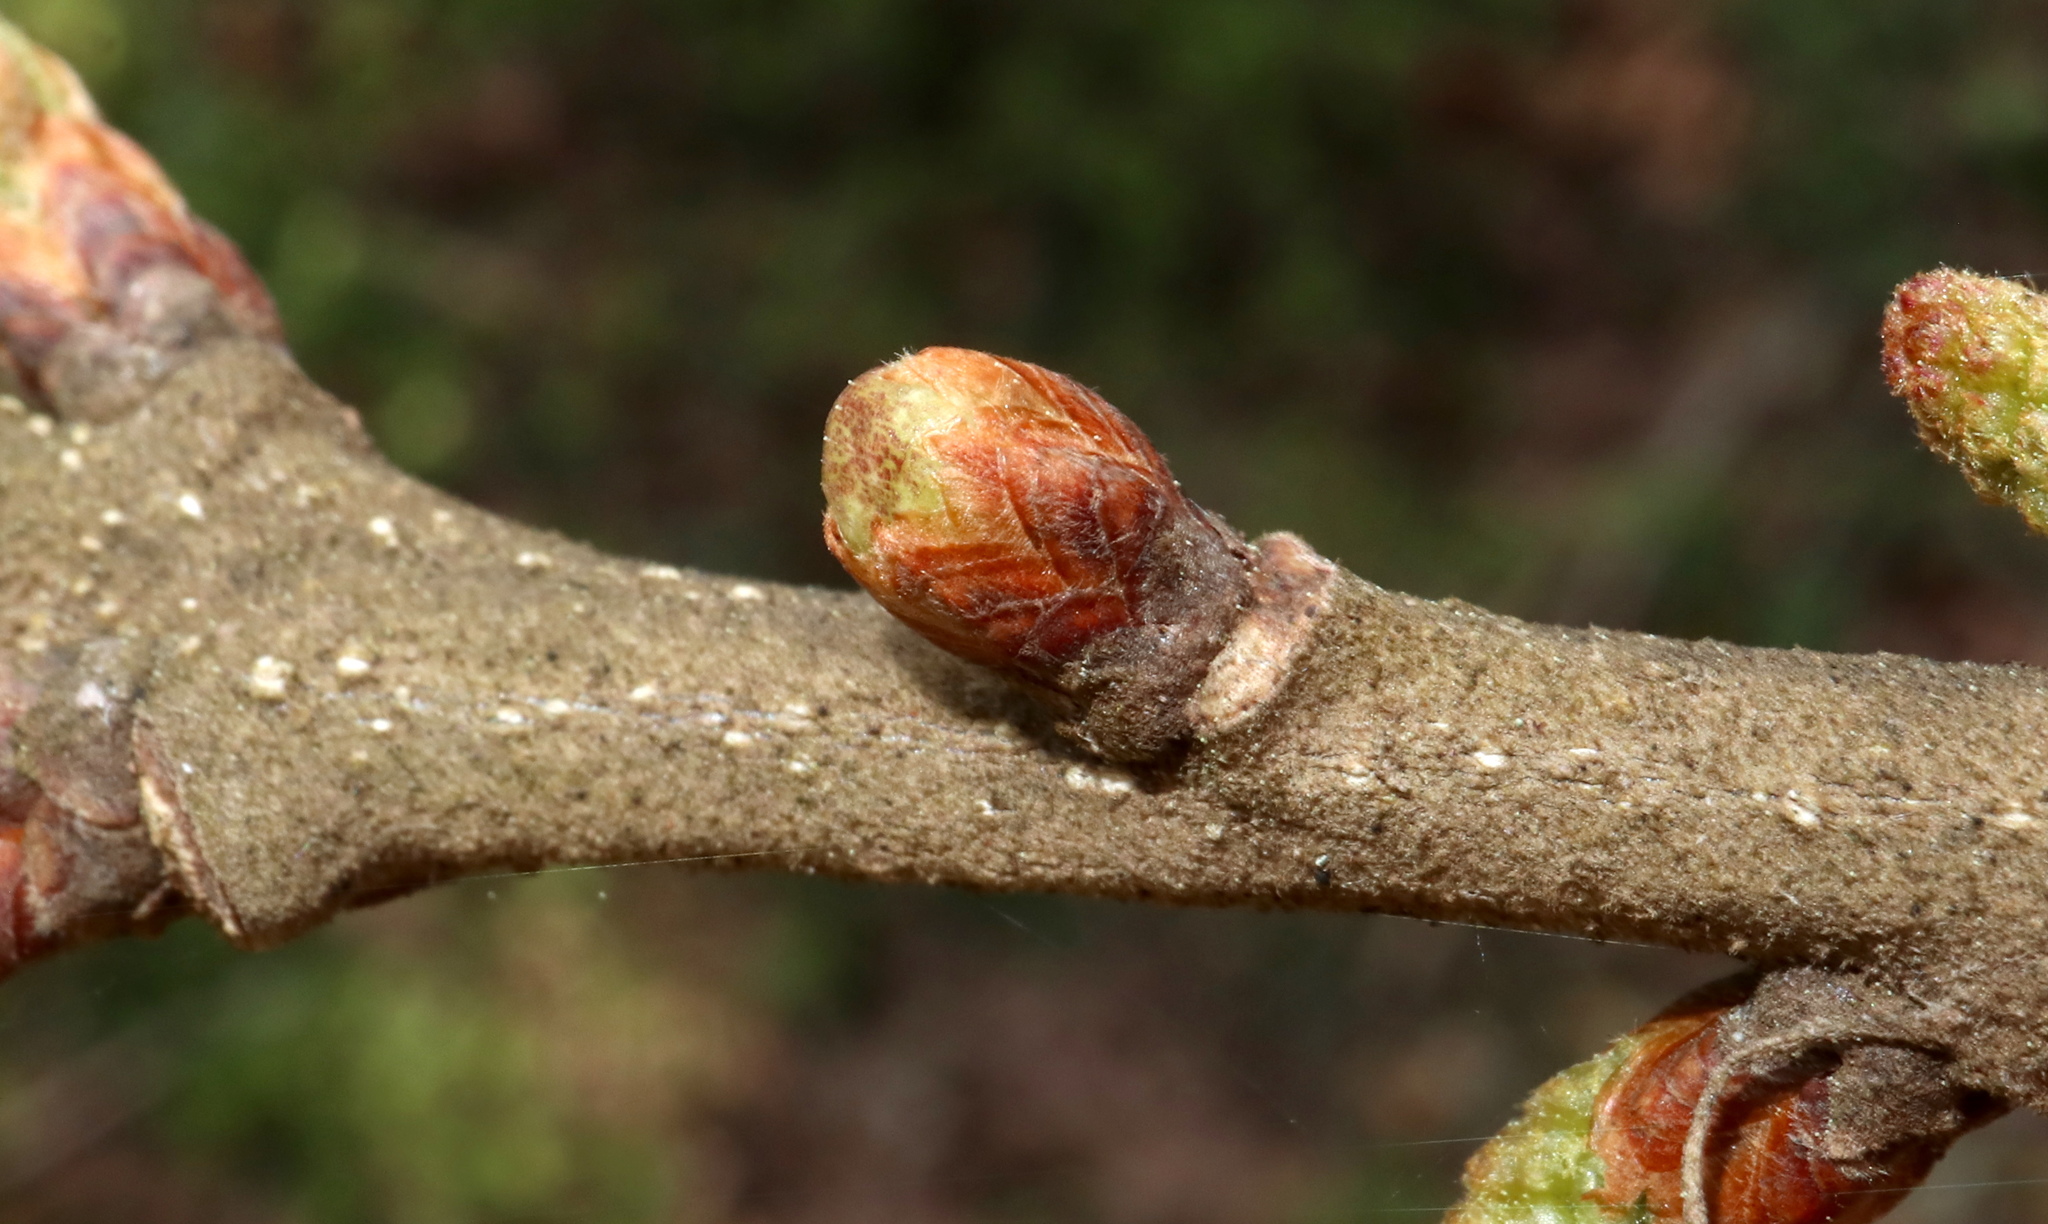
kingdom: Animalia
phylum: Arthropoda
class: Insecta
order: Hymenoptera
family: Cynipidae
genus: Neuroterus
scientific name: Neuroterus
